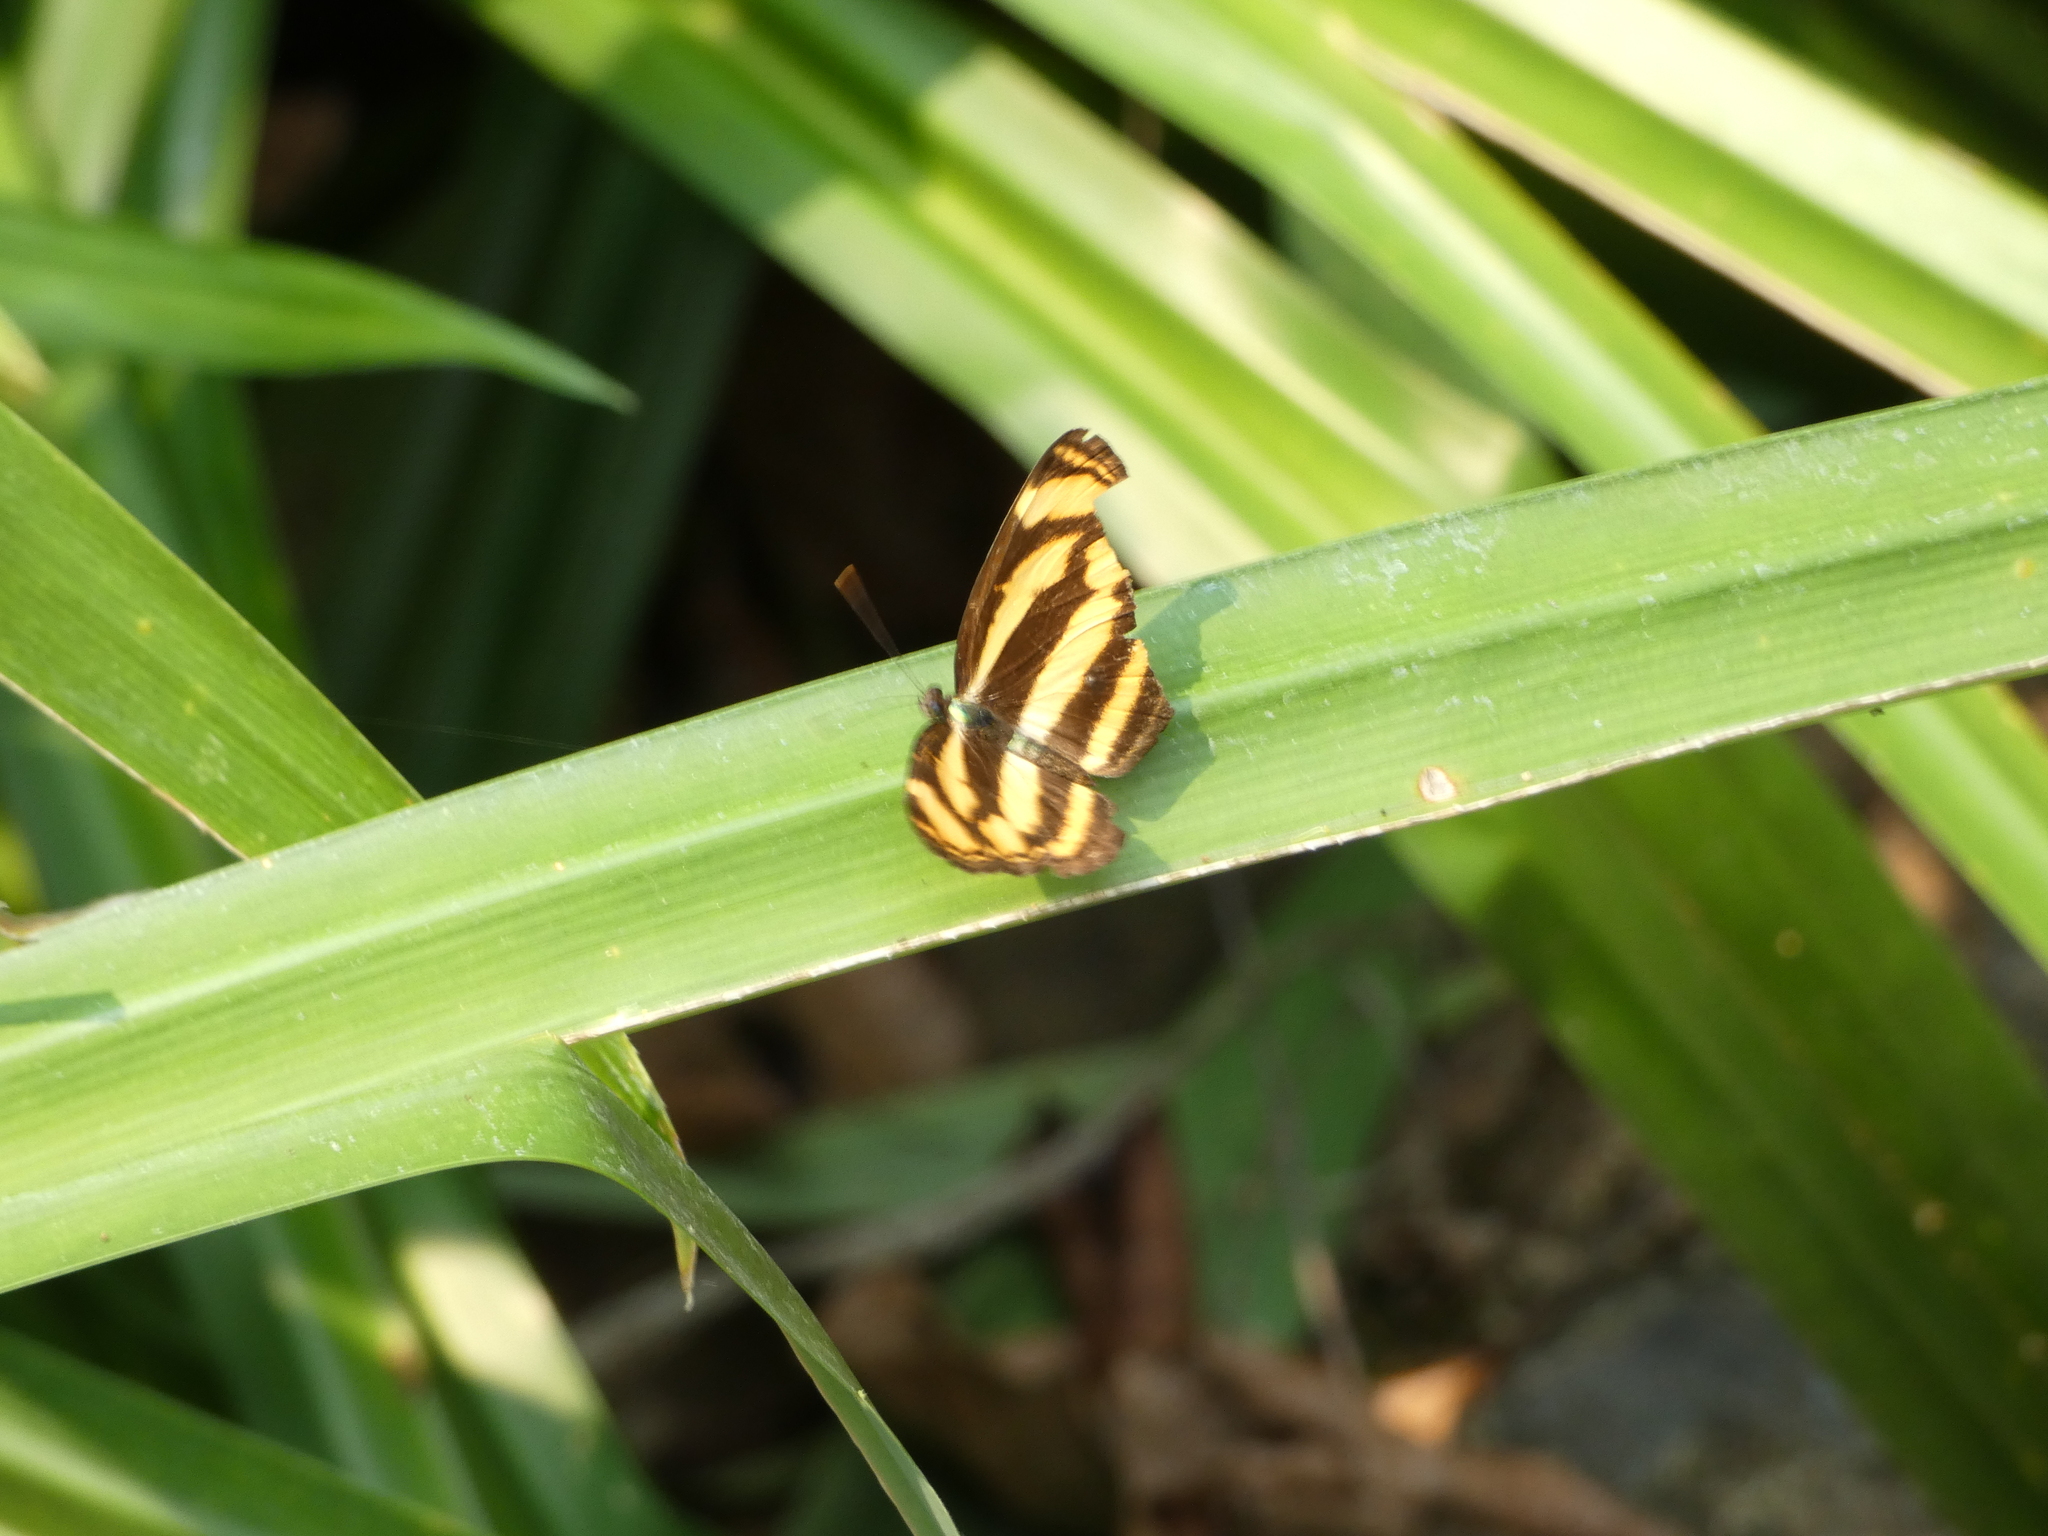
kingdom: Animalia
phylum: Arthropoda
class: Insecta
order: Lepidoptera
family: Nymphalidae
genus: Pantoporia
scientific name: Pantoporia aurelia
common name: Baby lascar
